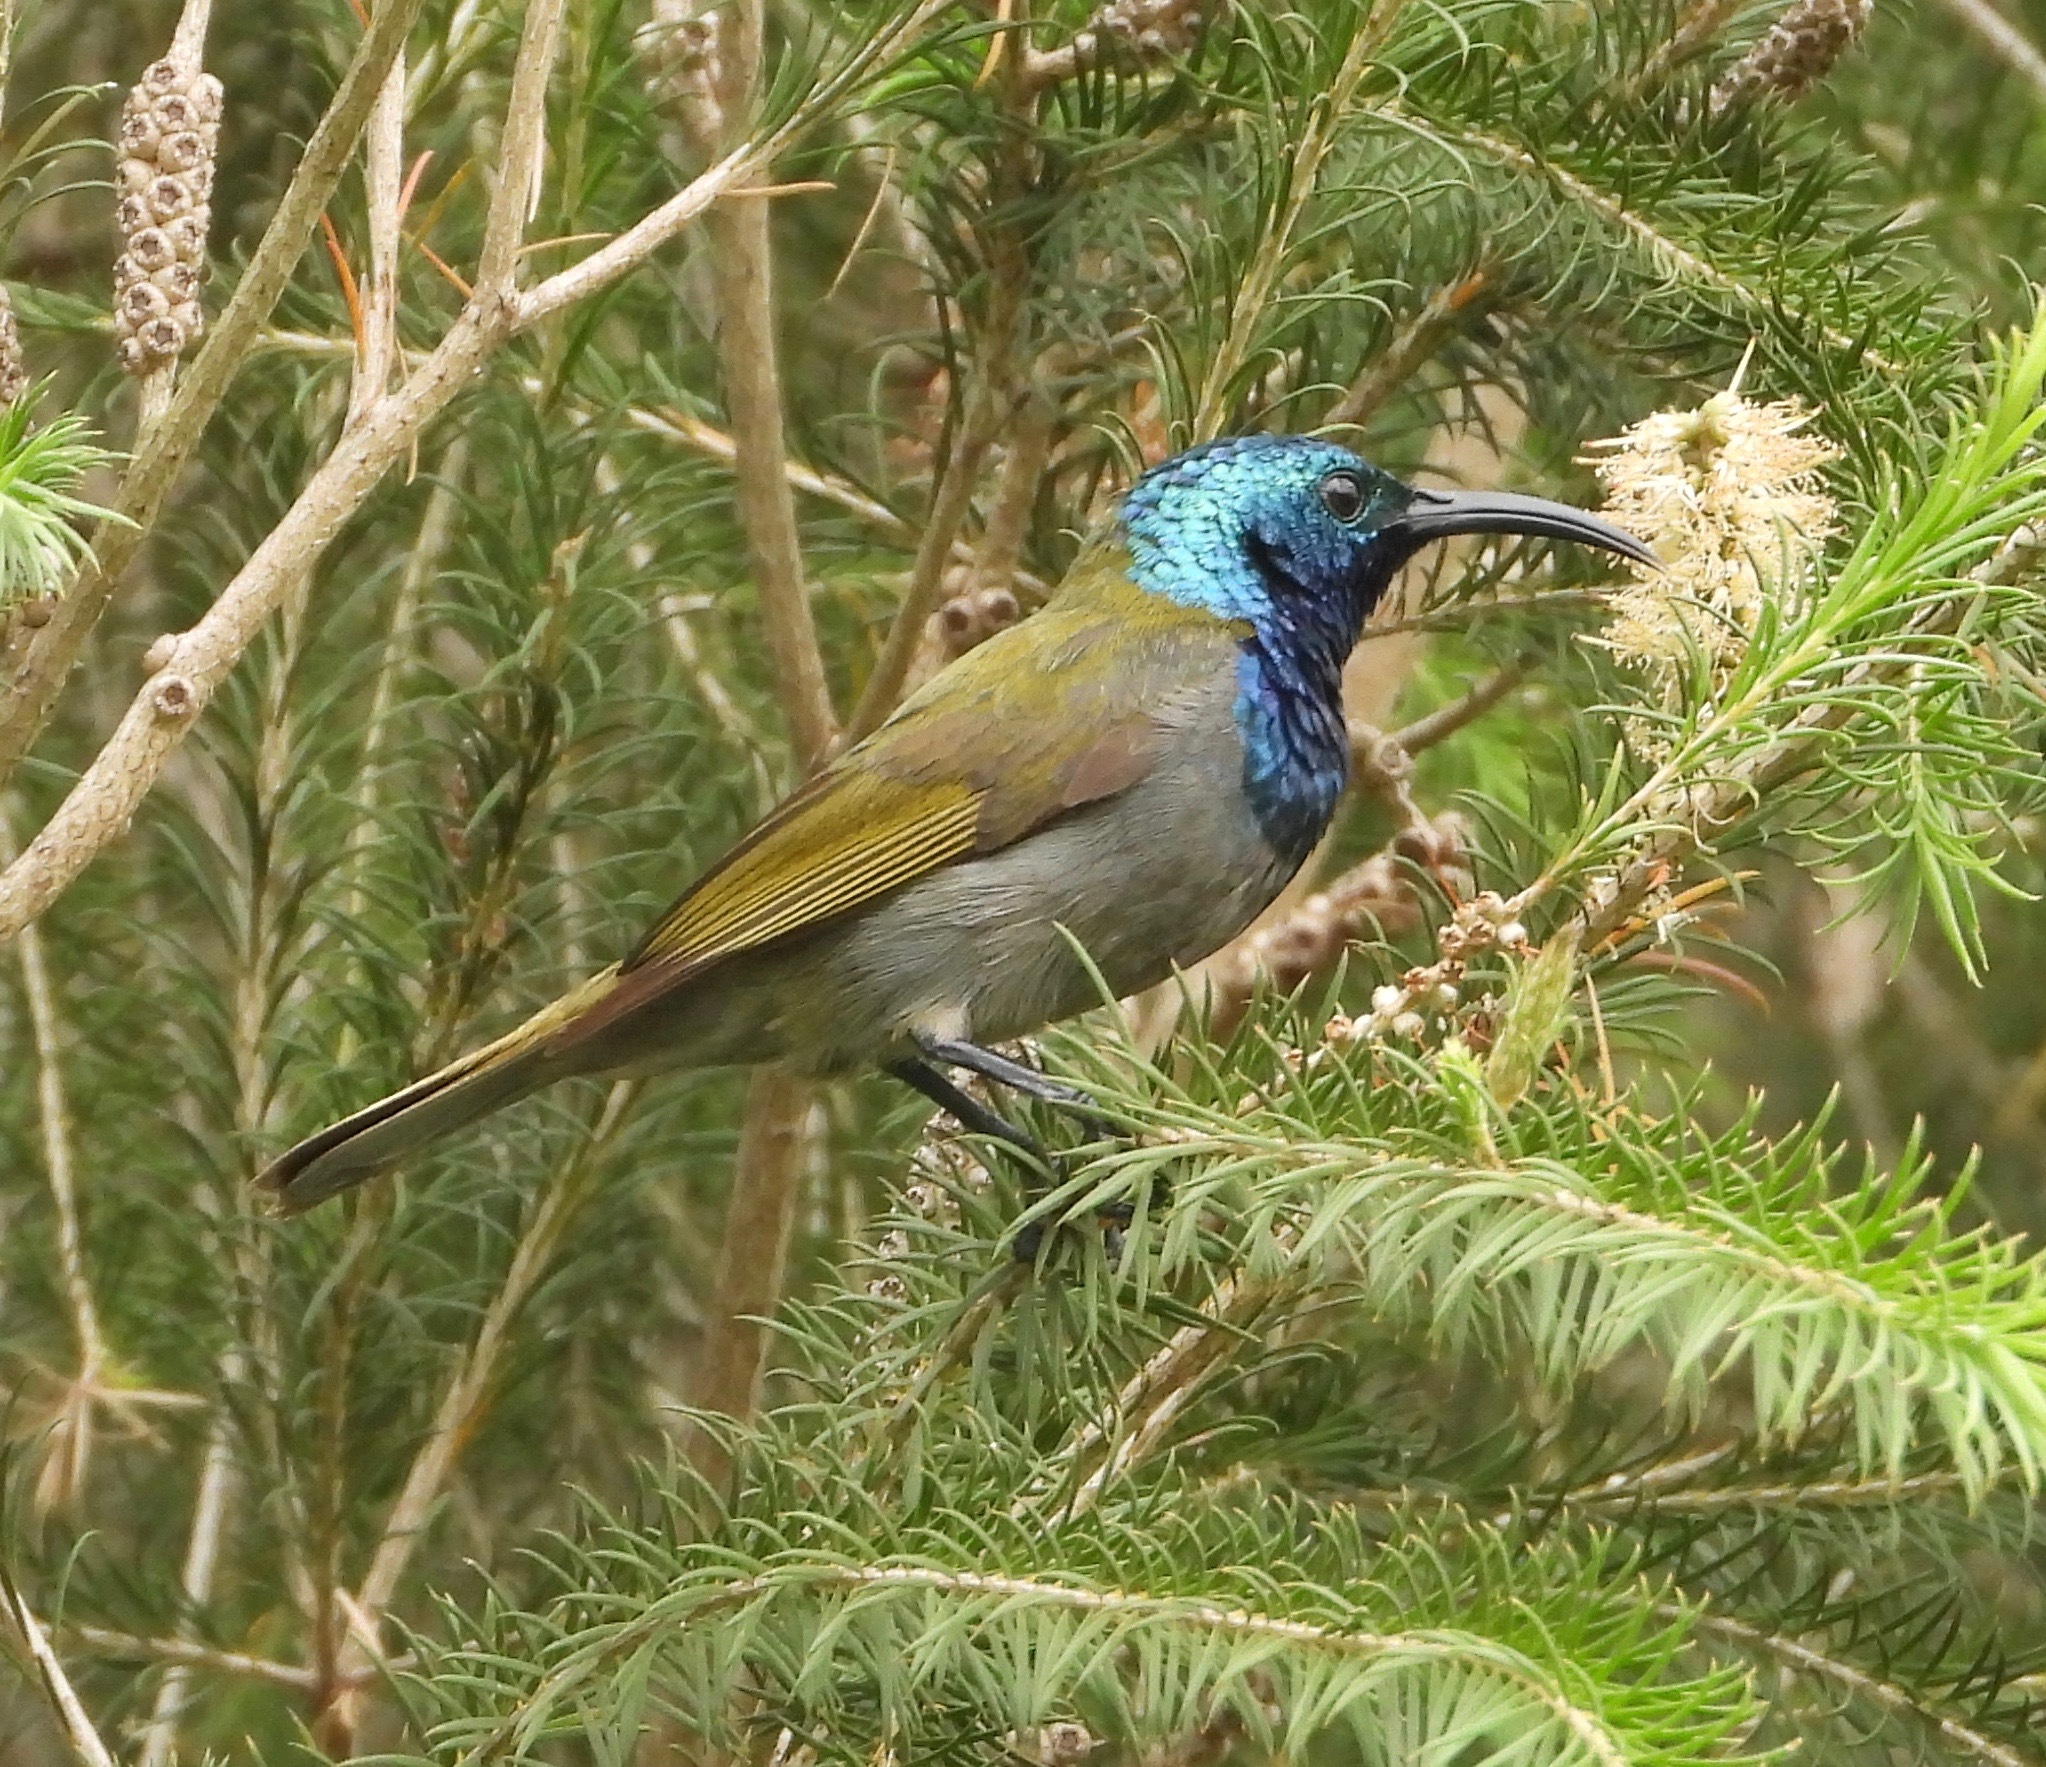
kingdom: Animalia
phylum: Chordata
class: Aves
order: Passeriformes
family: Nectariniidae
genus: Cyanomitra
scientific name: Cyanomitra verticalis
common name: Green-headed sunbird
